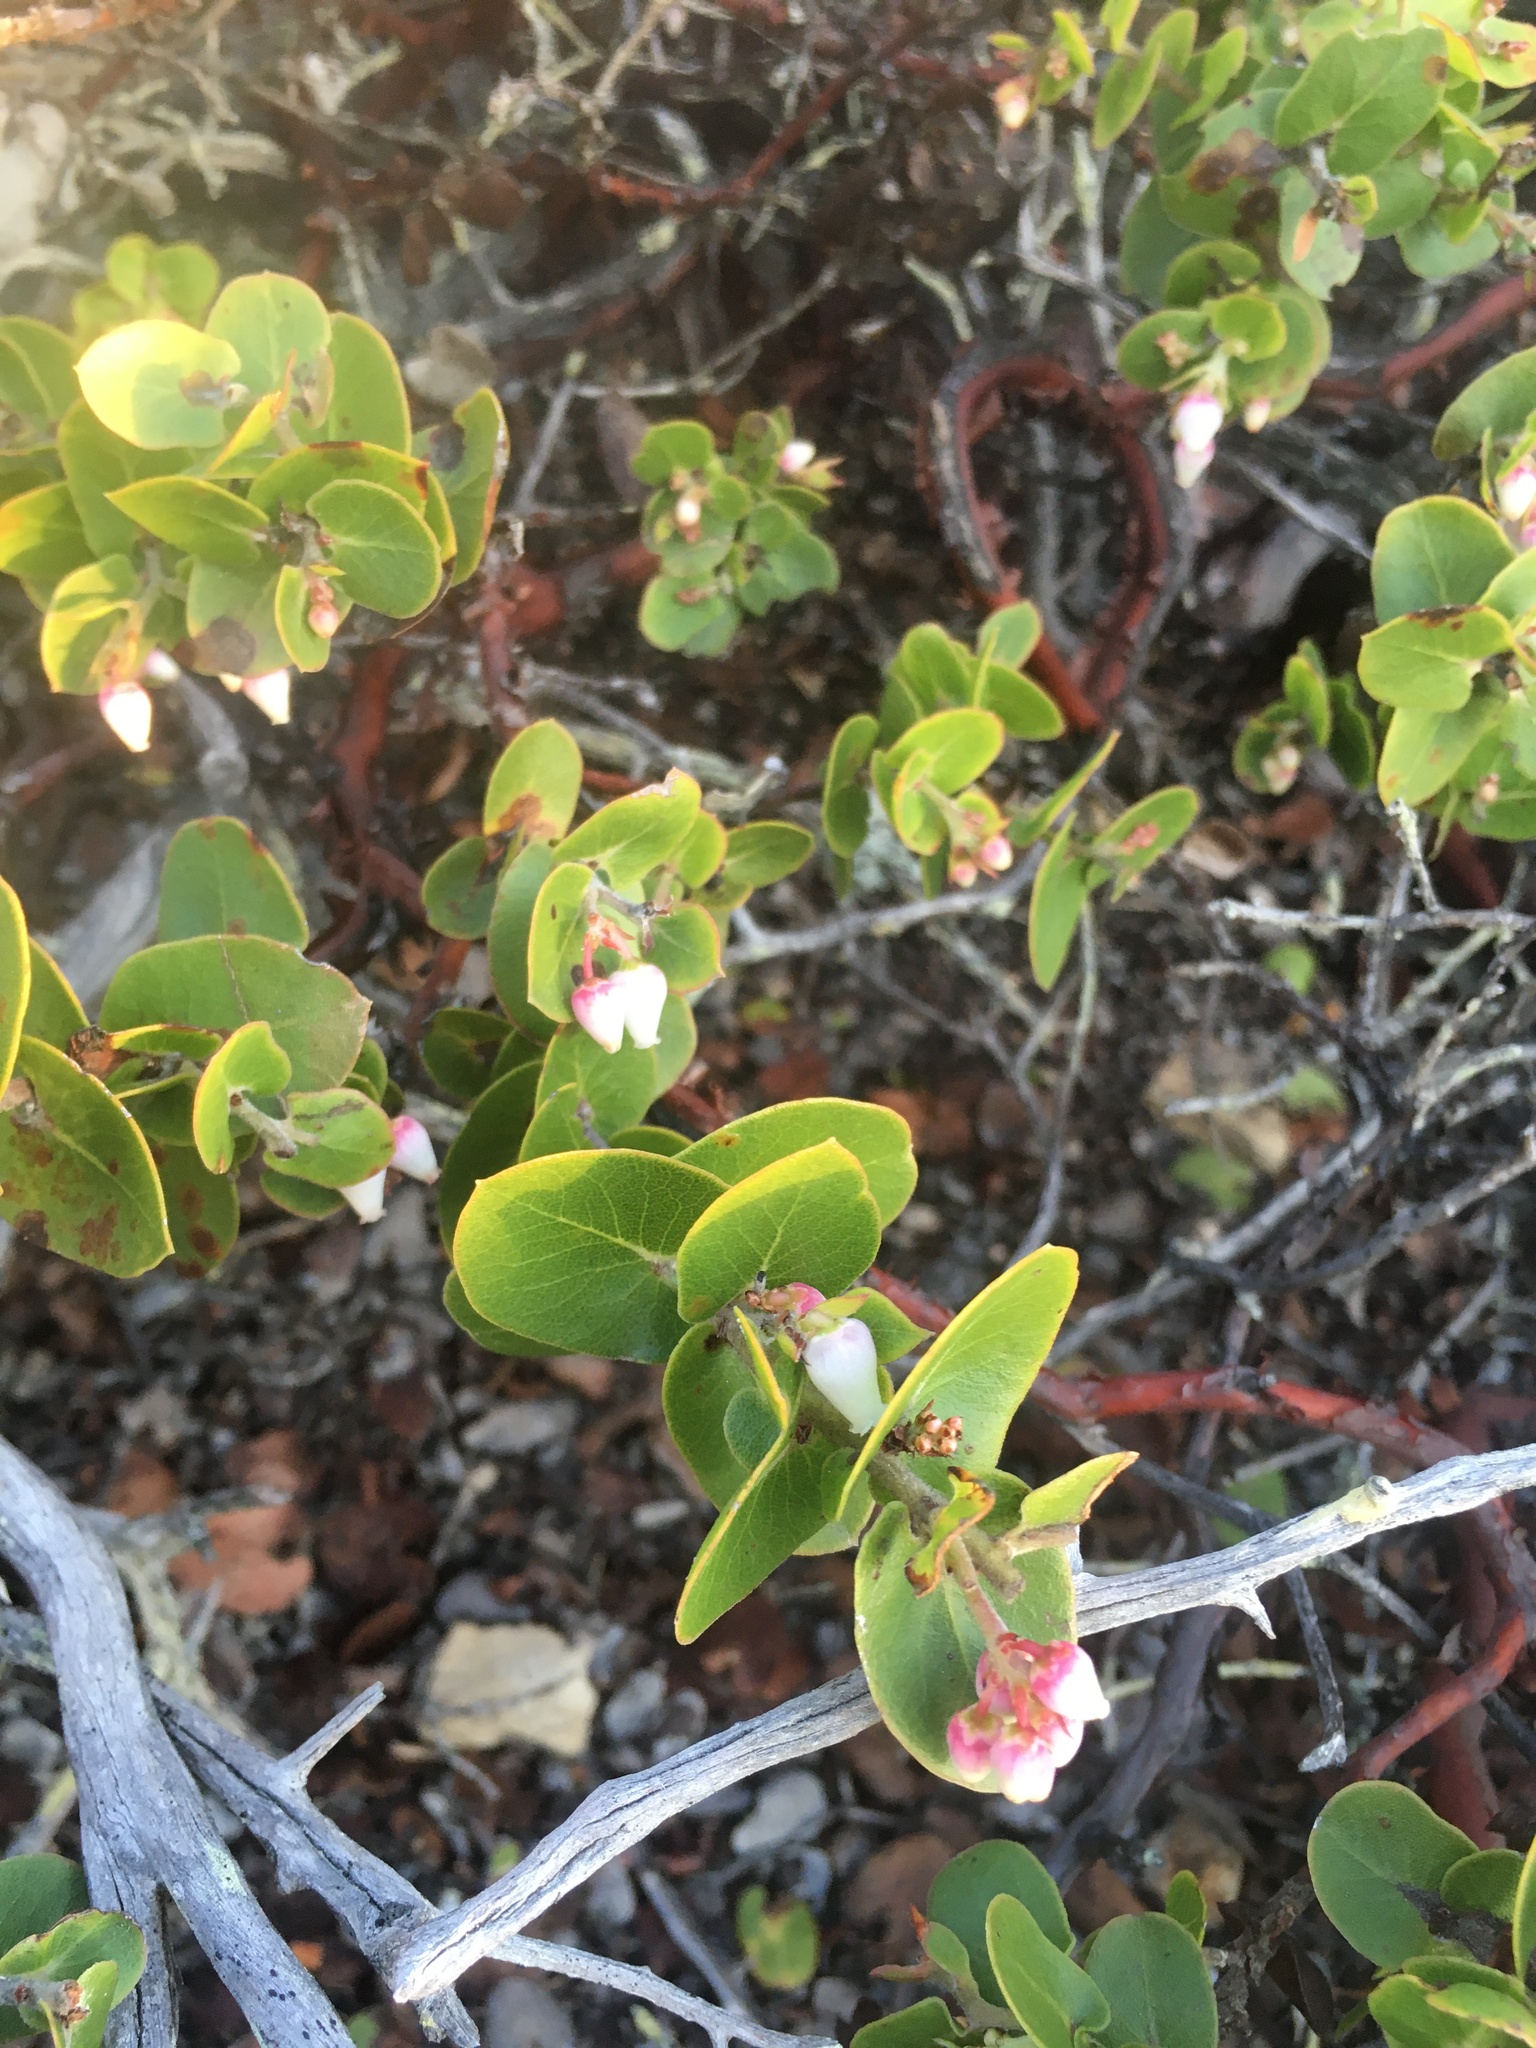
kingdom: Plantae
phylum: Tracheophyta
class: Magnoliopsida
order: Ericales
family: Ericaceae
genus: Arctostaphylos
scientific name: Arctostaphylos osoensis
